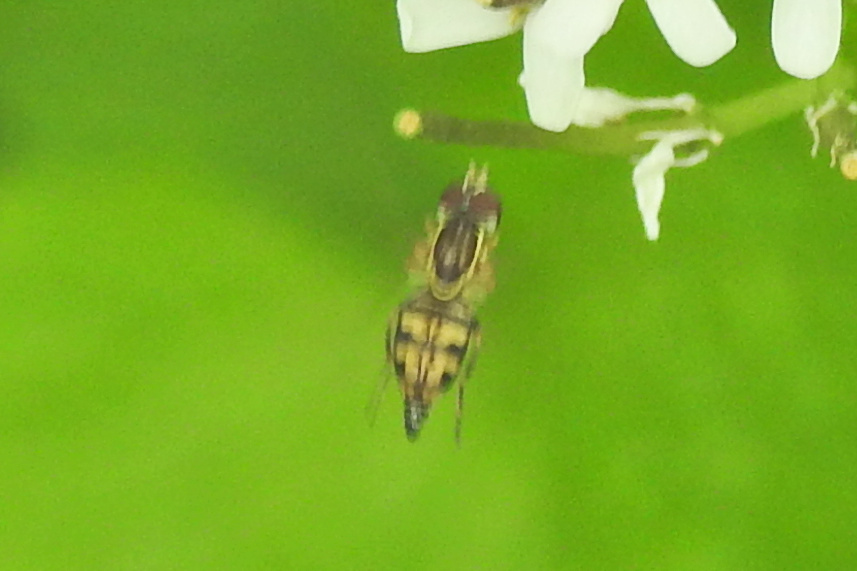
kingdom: Animalia
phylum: Arthropoda
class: Insecta
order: Diptera
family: Syrphidae
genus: Toxomerus
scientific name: Toxomerus geminatus
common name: Eastern calligrapher
